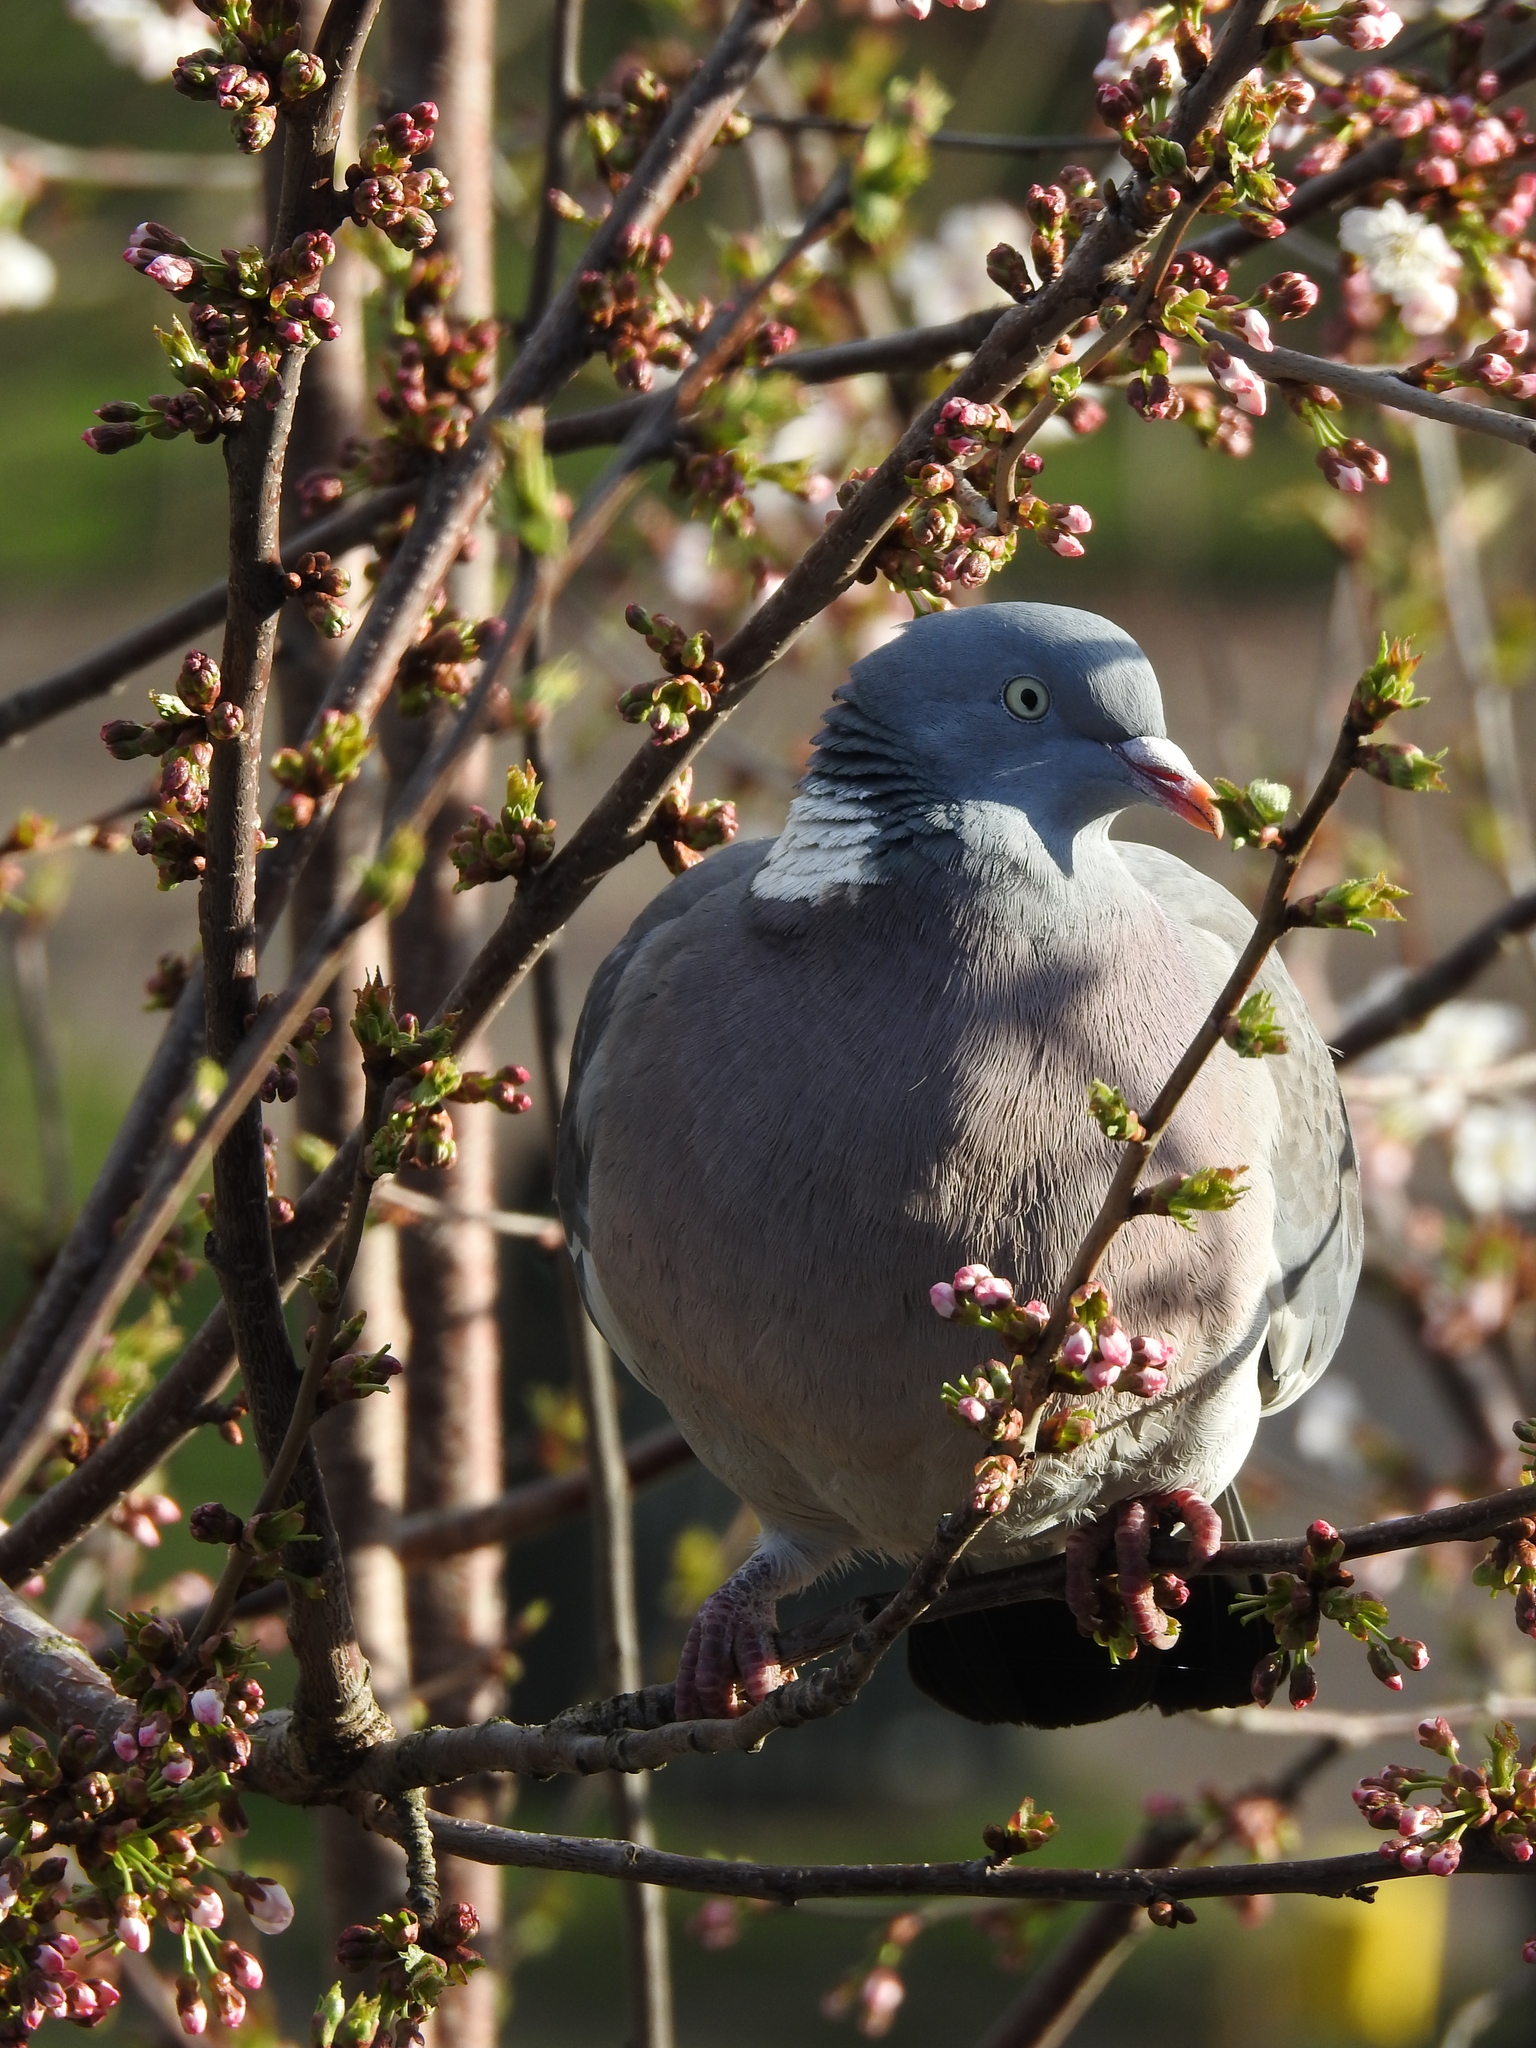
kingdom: Animalia
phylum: Chordata
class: Aves
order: Columbiformes
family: Columbidae
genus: Columba
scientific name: Columba palumbus
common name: Common wood pigeon
